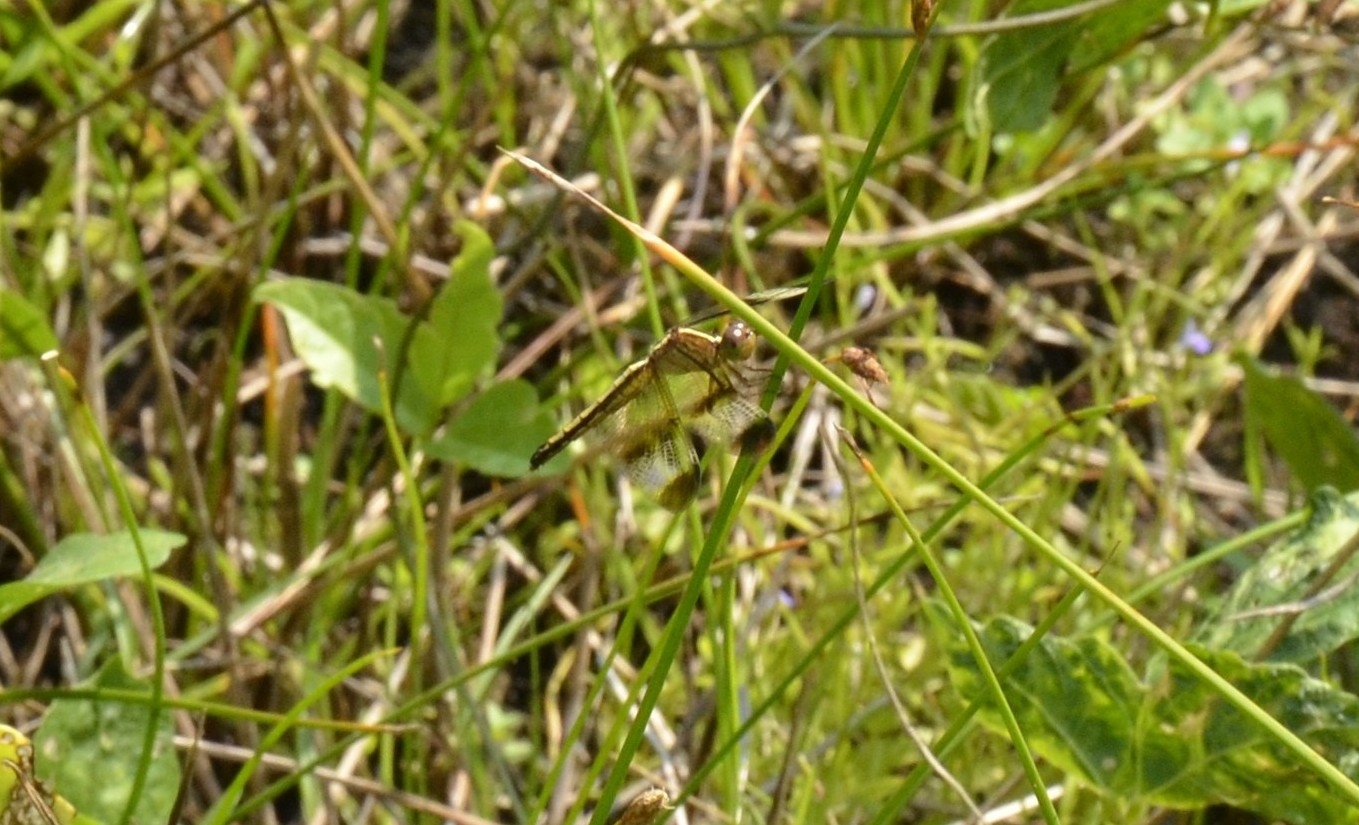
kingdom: Animalia
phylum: Arthropoda
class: Insecta
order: Odonata
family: Libellulidae
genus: Neurothemis
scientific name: Neurothemis tullia
